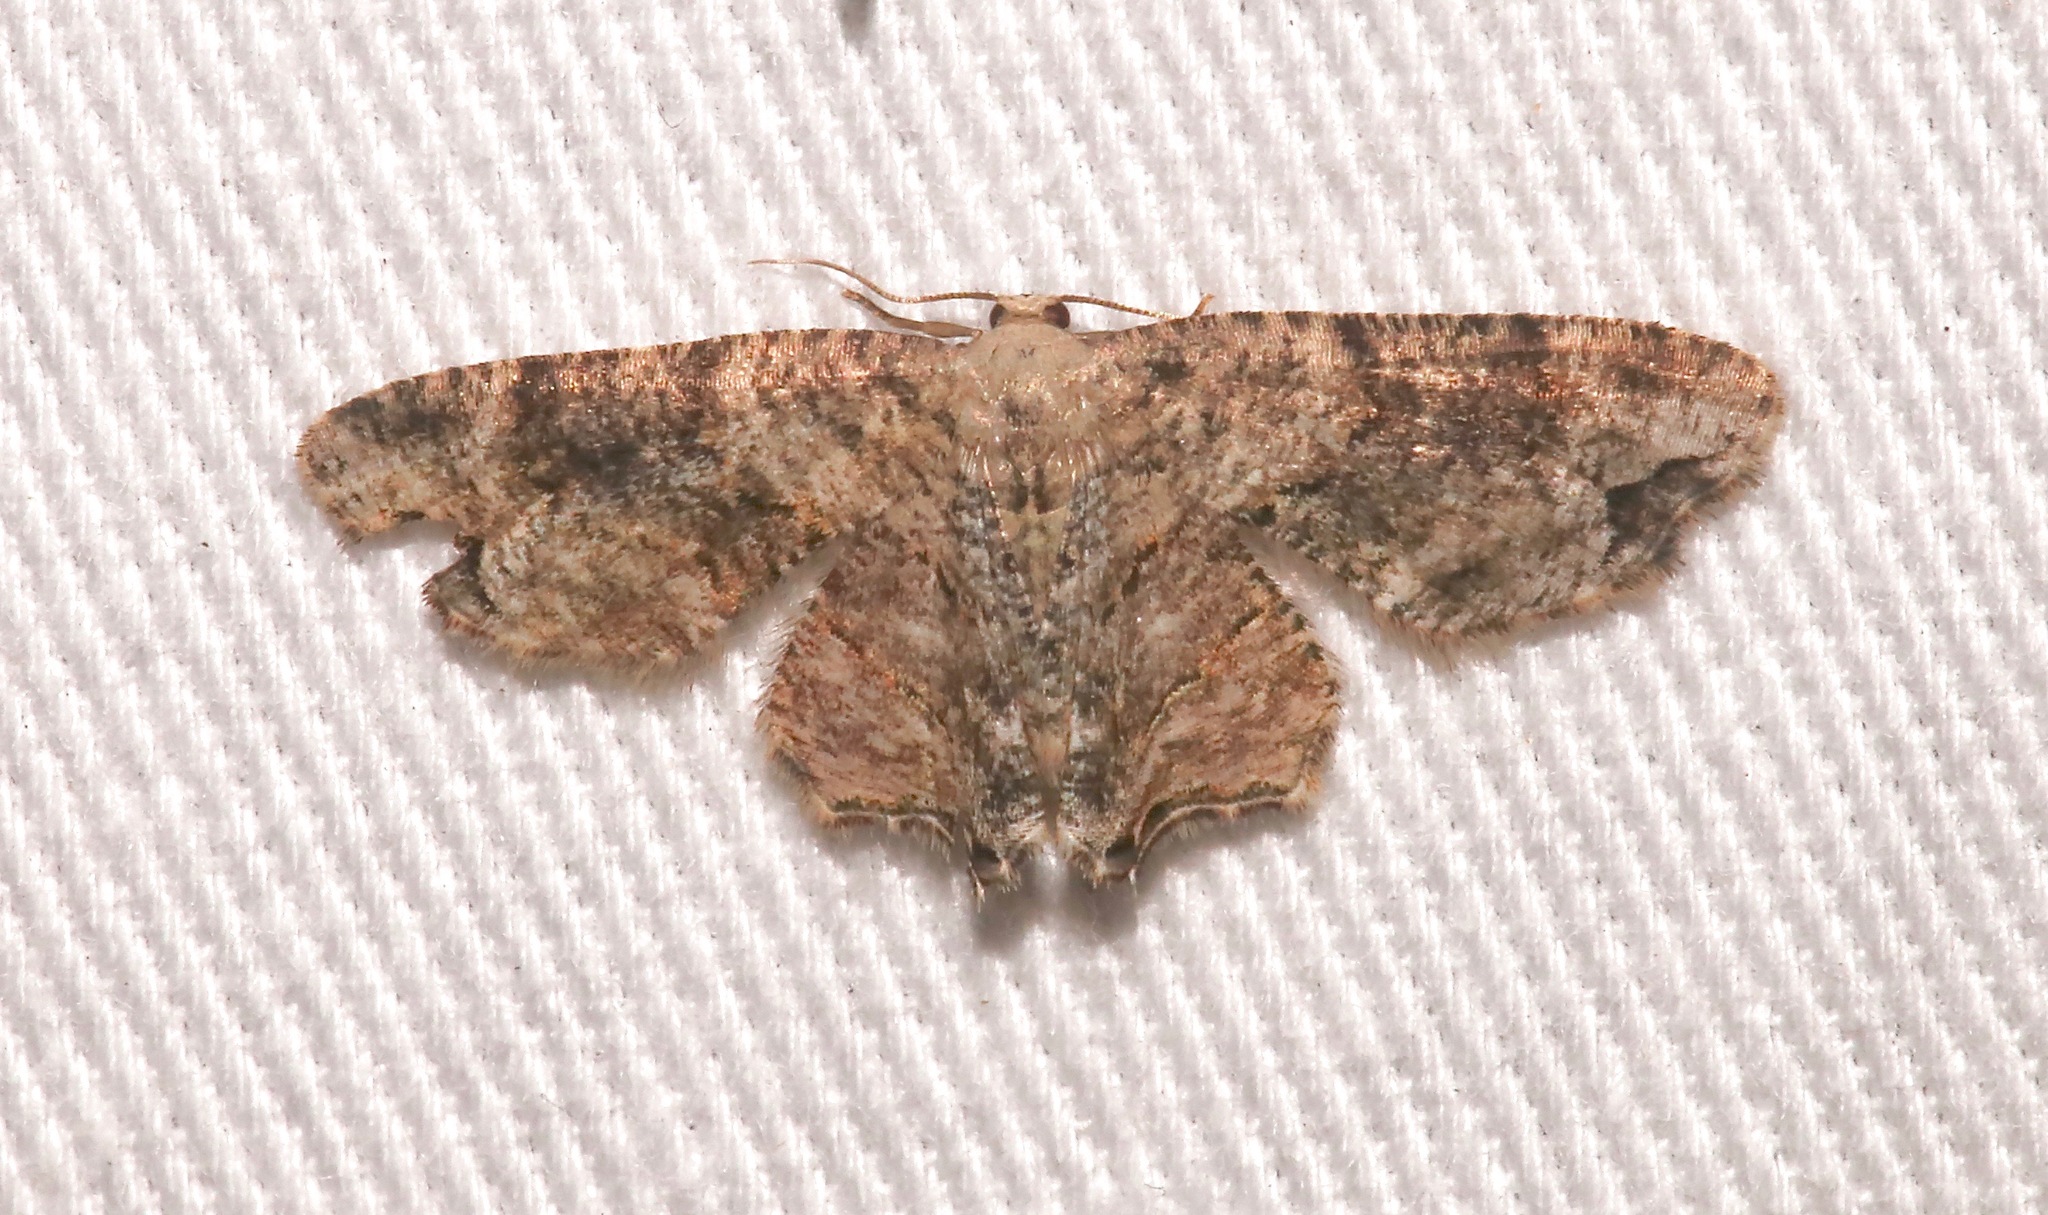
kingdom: Animalia
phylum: Arthropoda
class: Insecta
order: Lepidoptera
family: Uraniidae
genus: Epiplema
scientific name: Epiplema Callizzia certiorara
